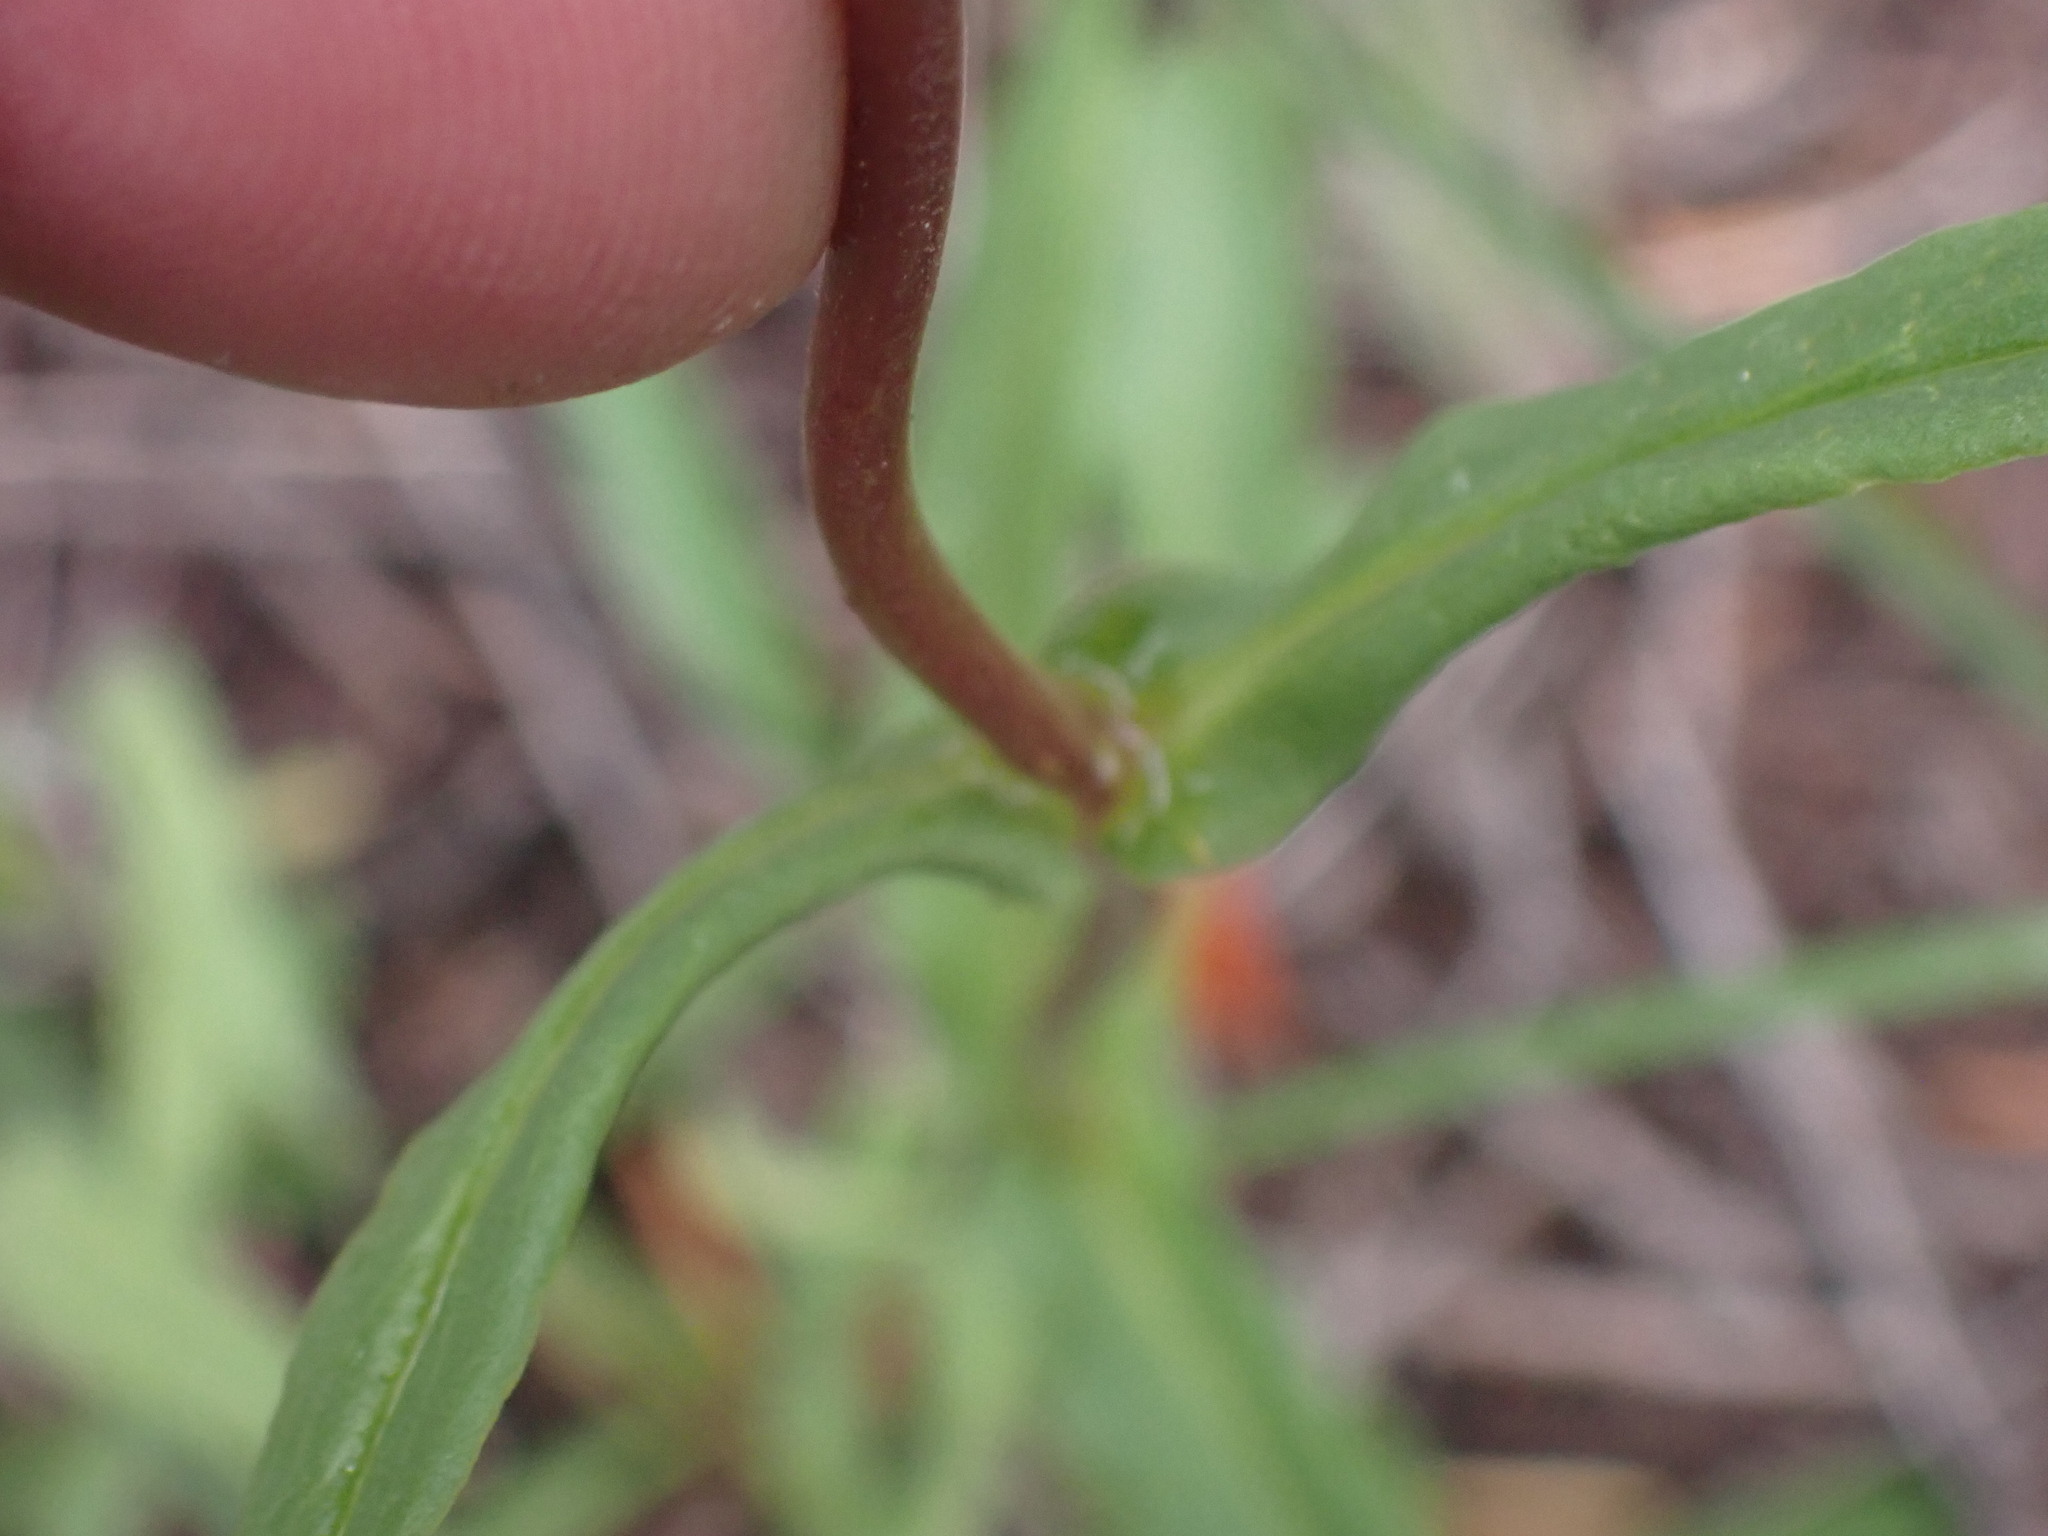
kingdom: Plantae
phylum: Tracheophyta
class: Magnoliopsida
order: Lamiales
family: Plantaginaceae
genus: Penstemon
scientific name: Penstemon confertus
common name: Lesser yellow beardtongue
